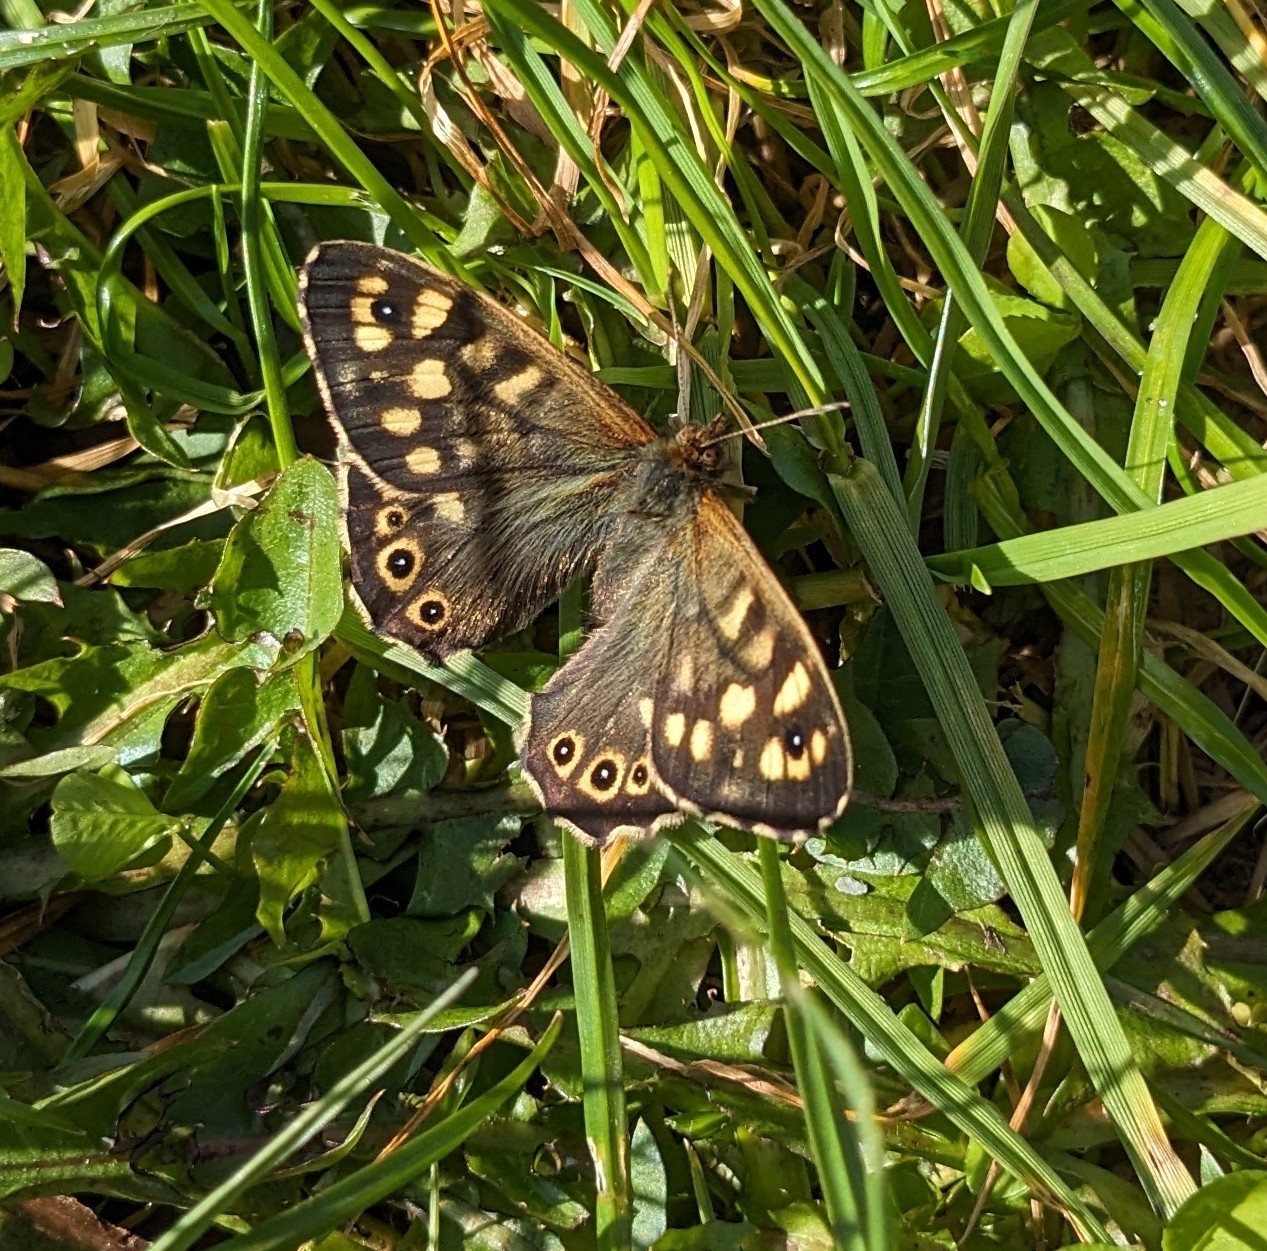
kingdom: Animalia
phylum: Arthropoda
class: Insecta
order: Lepidoptera
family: Nymphalidae
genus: Pararge
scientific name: Pararge aegeria
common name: Speckled wood
